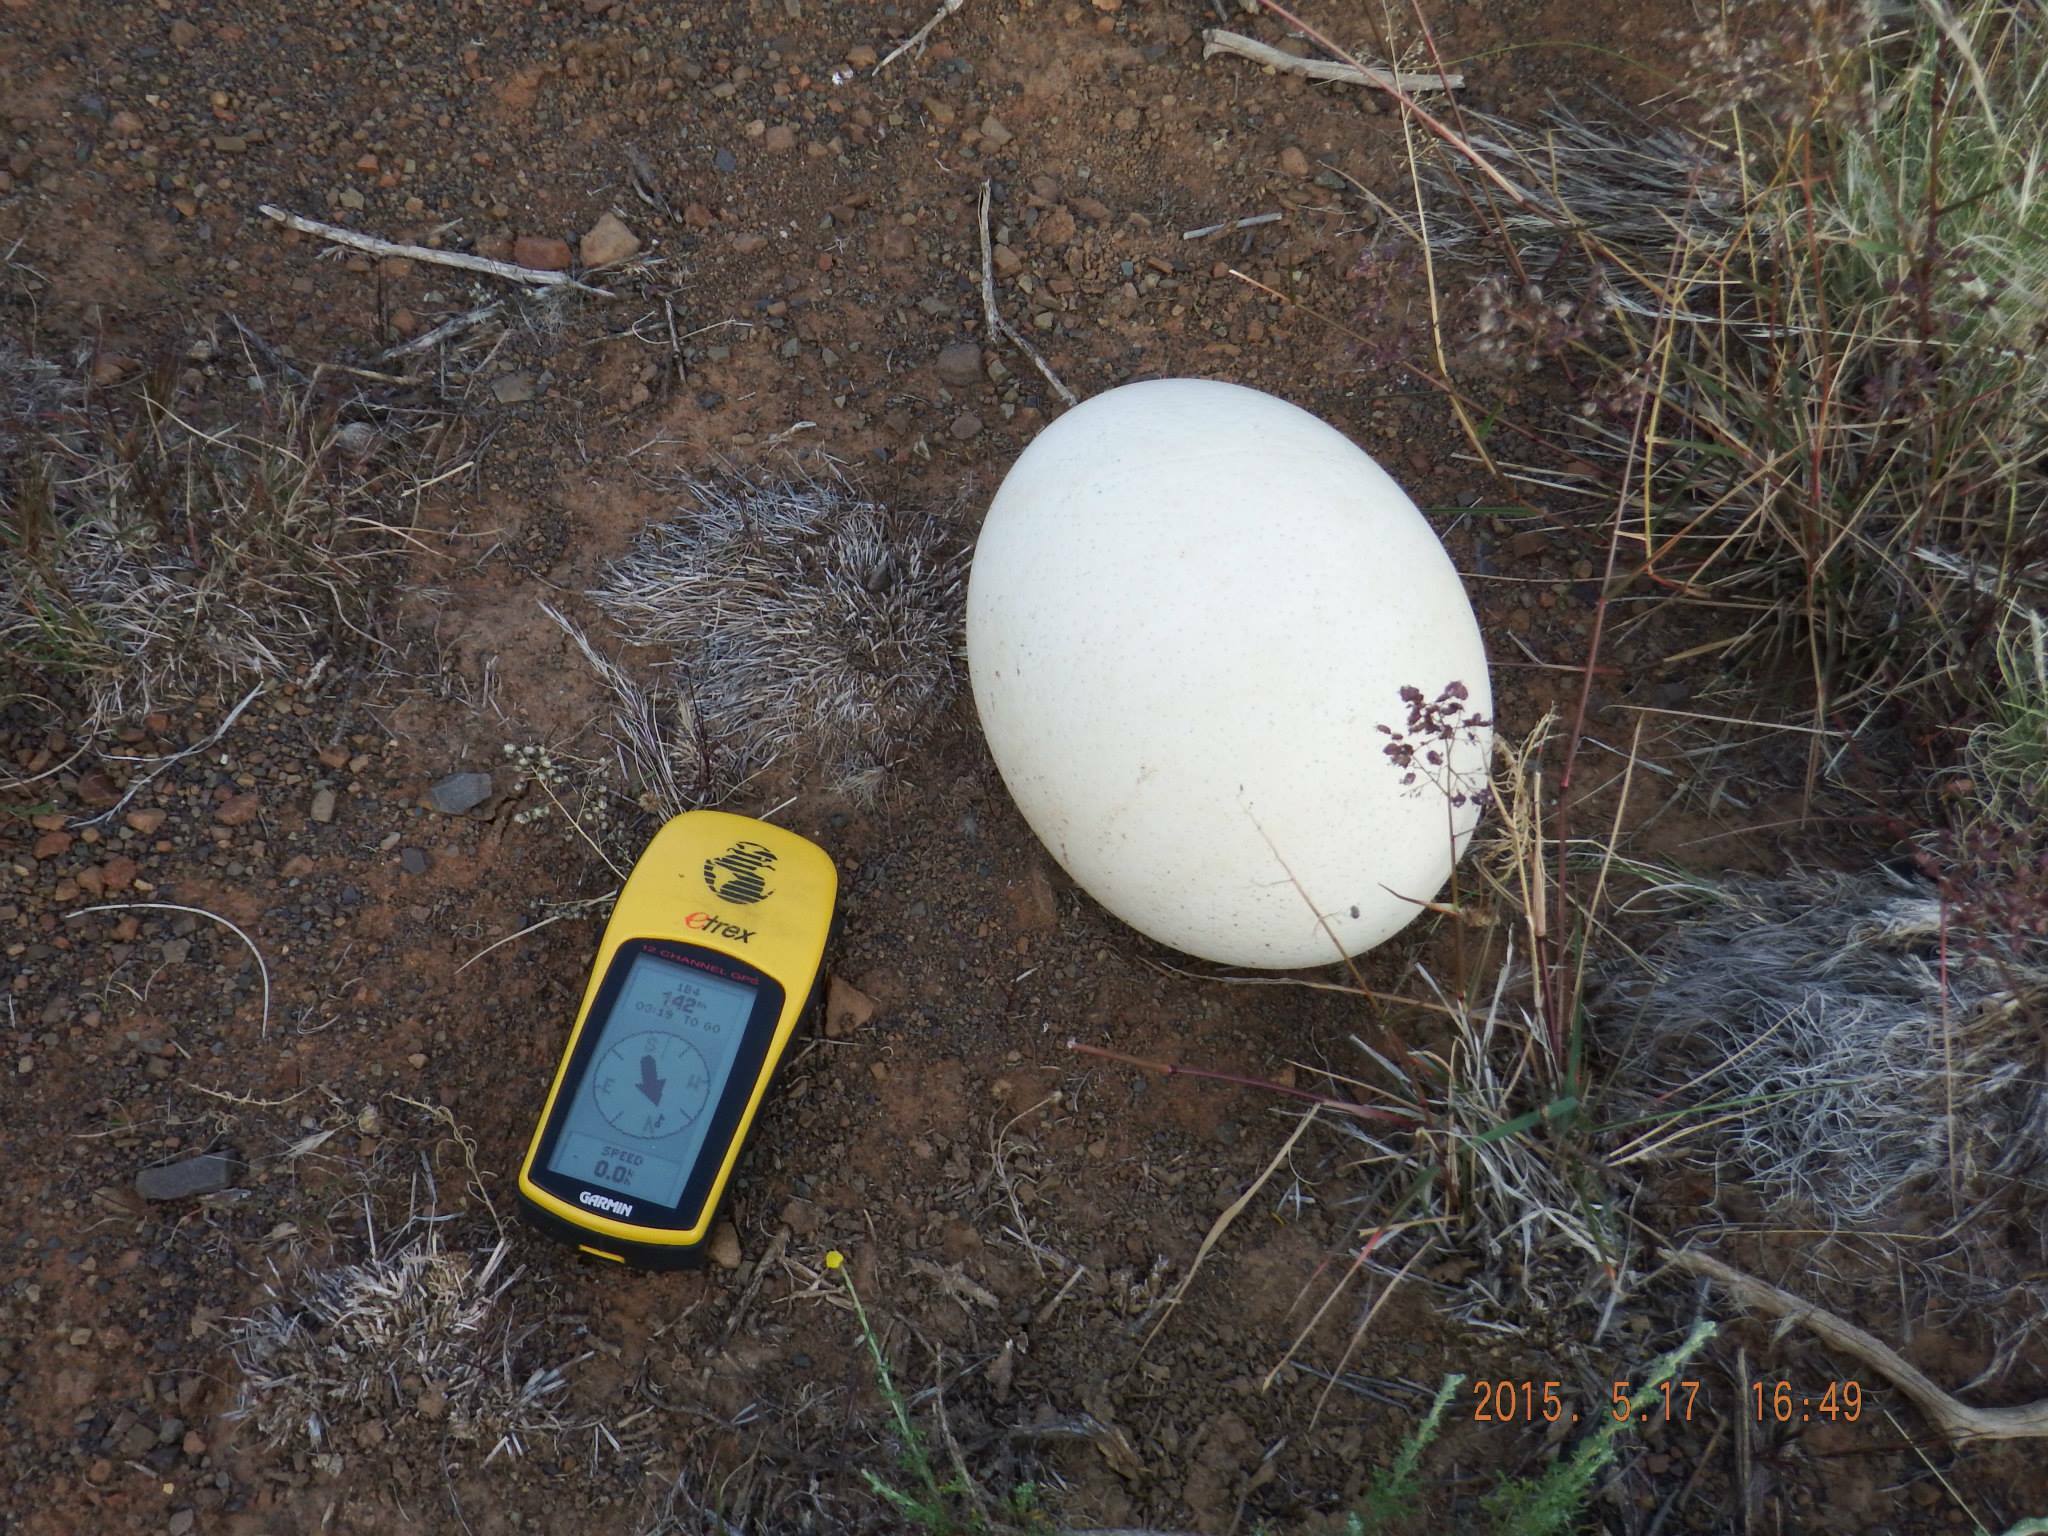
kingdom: Animalia
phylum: Chordata
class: Aves
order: Struthioniformes
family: Struthionidae
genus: Struthio
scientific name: Struthio camelus
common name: Common ostrich
